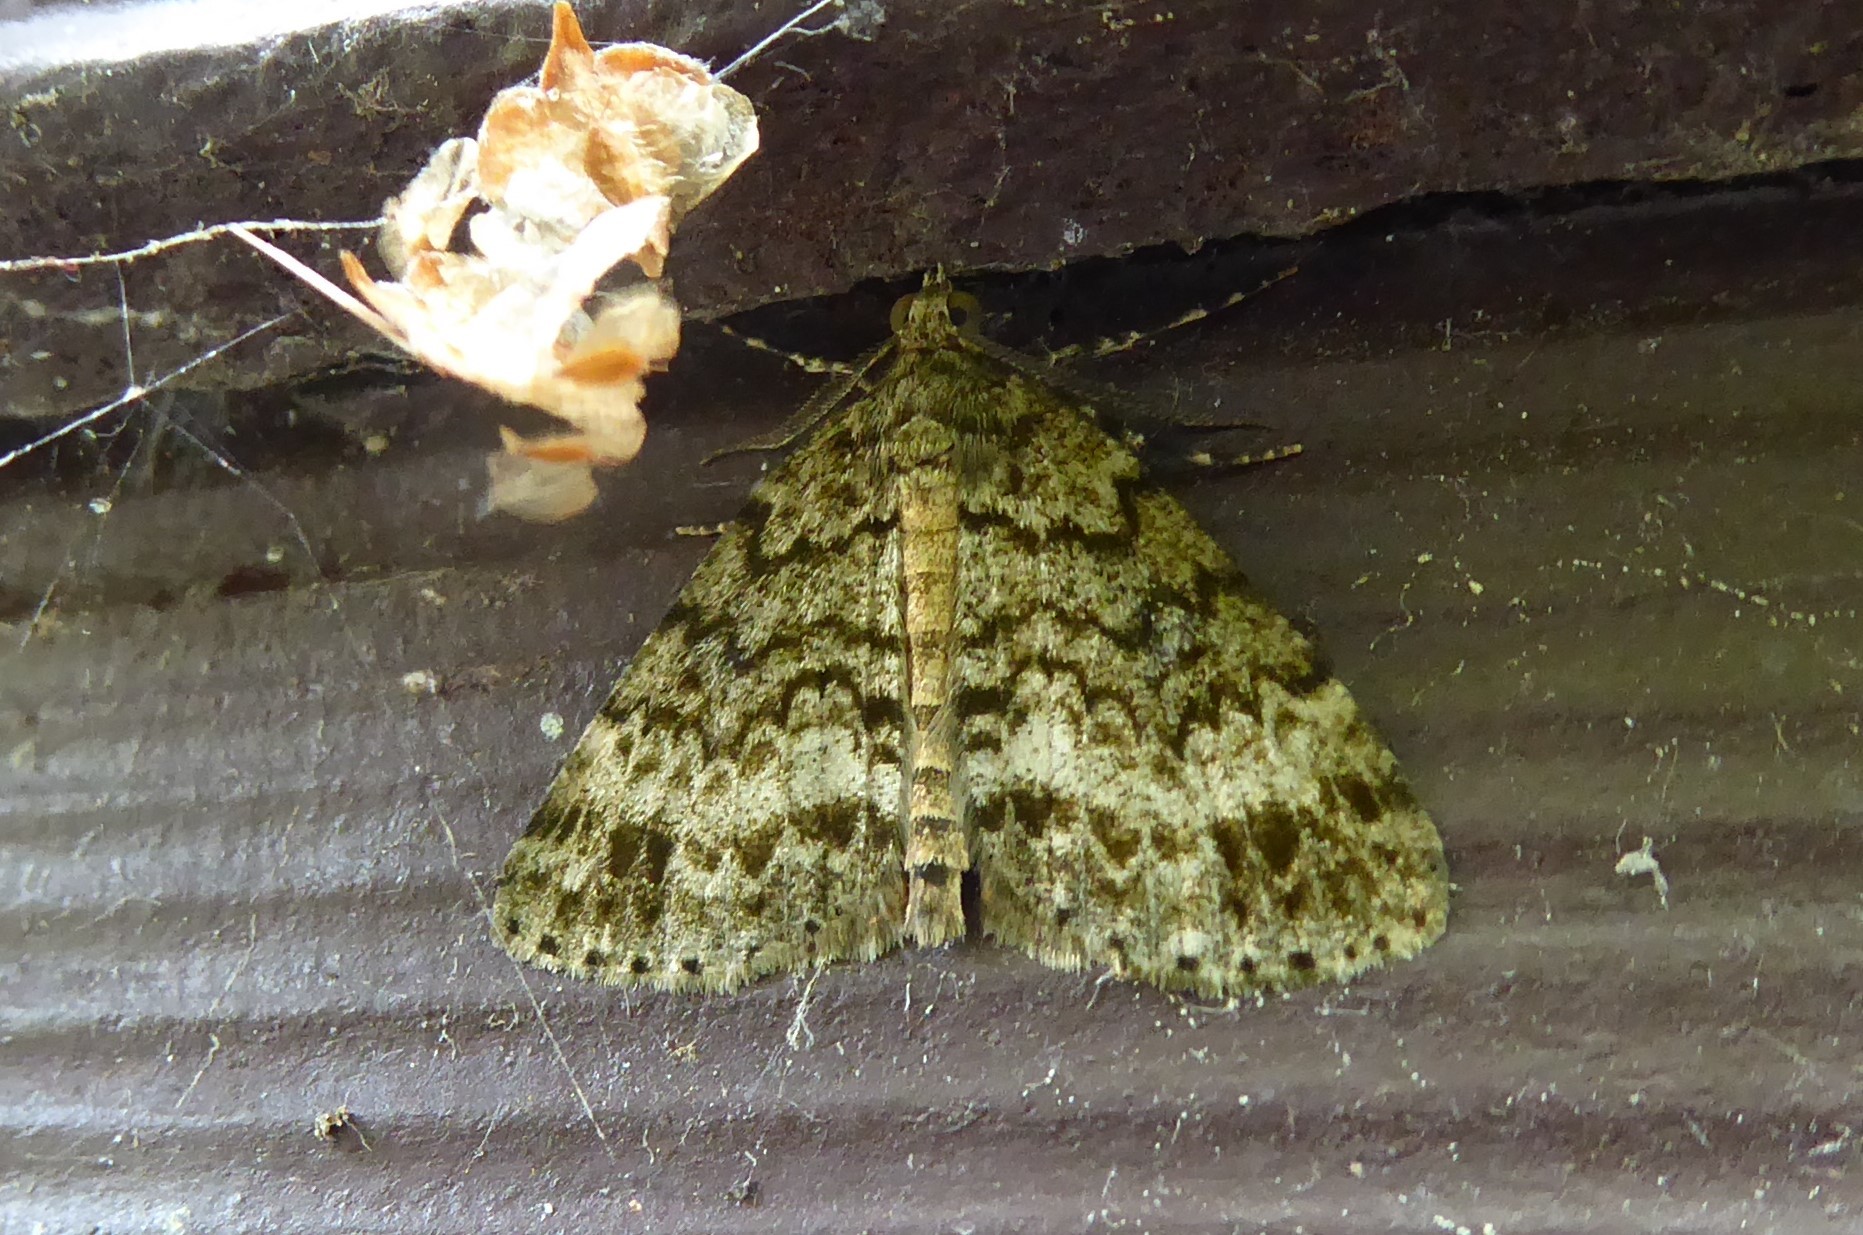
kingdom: Animalia
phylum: Arthropoda
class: Insecta
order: Lepidoptera
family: Geometridae
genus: Pseudocoremia
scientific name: Pseudocoremia indistincta
